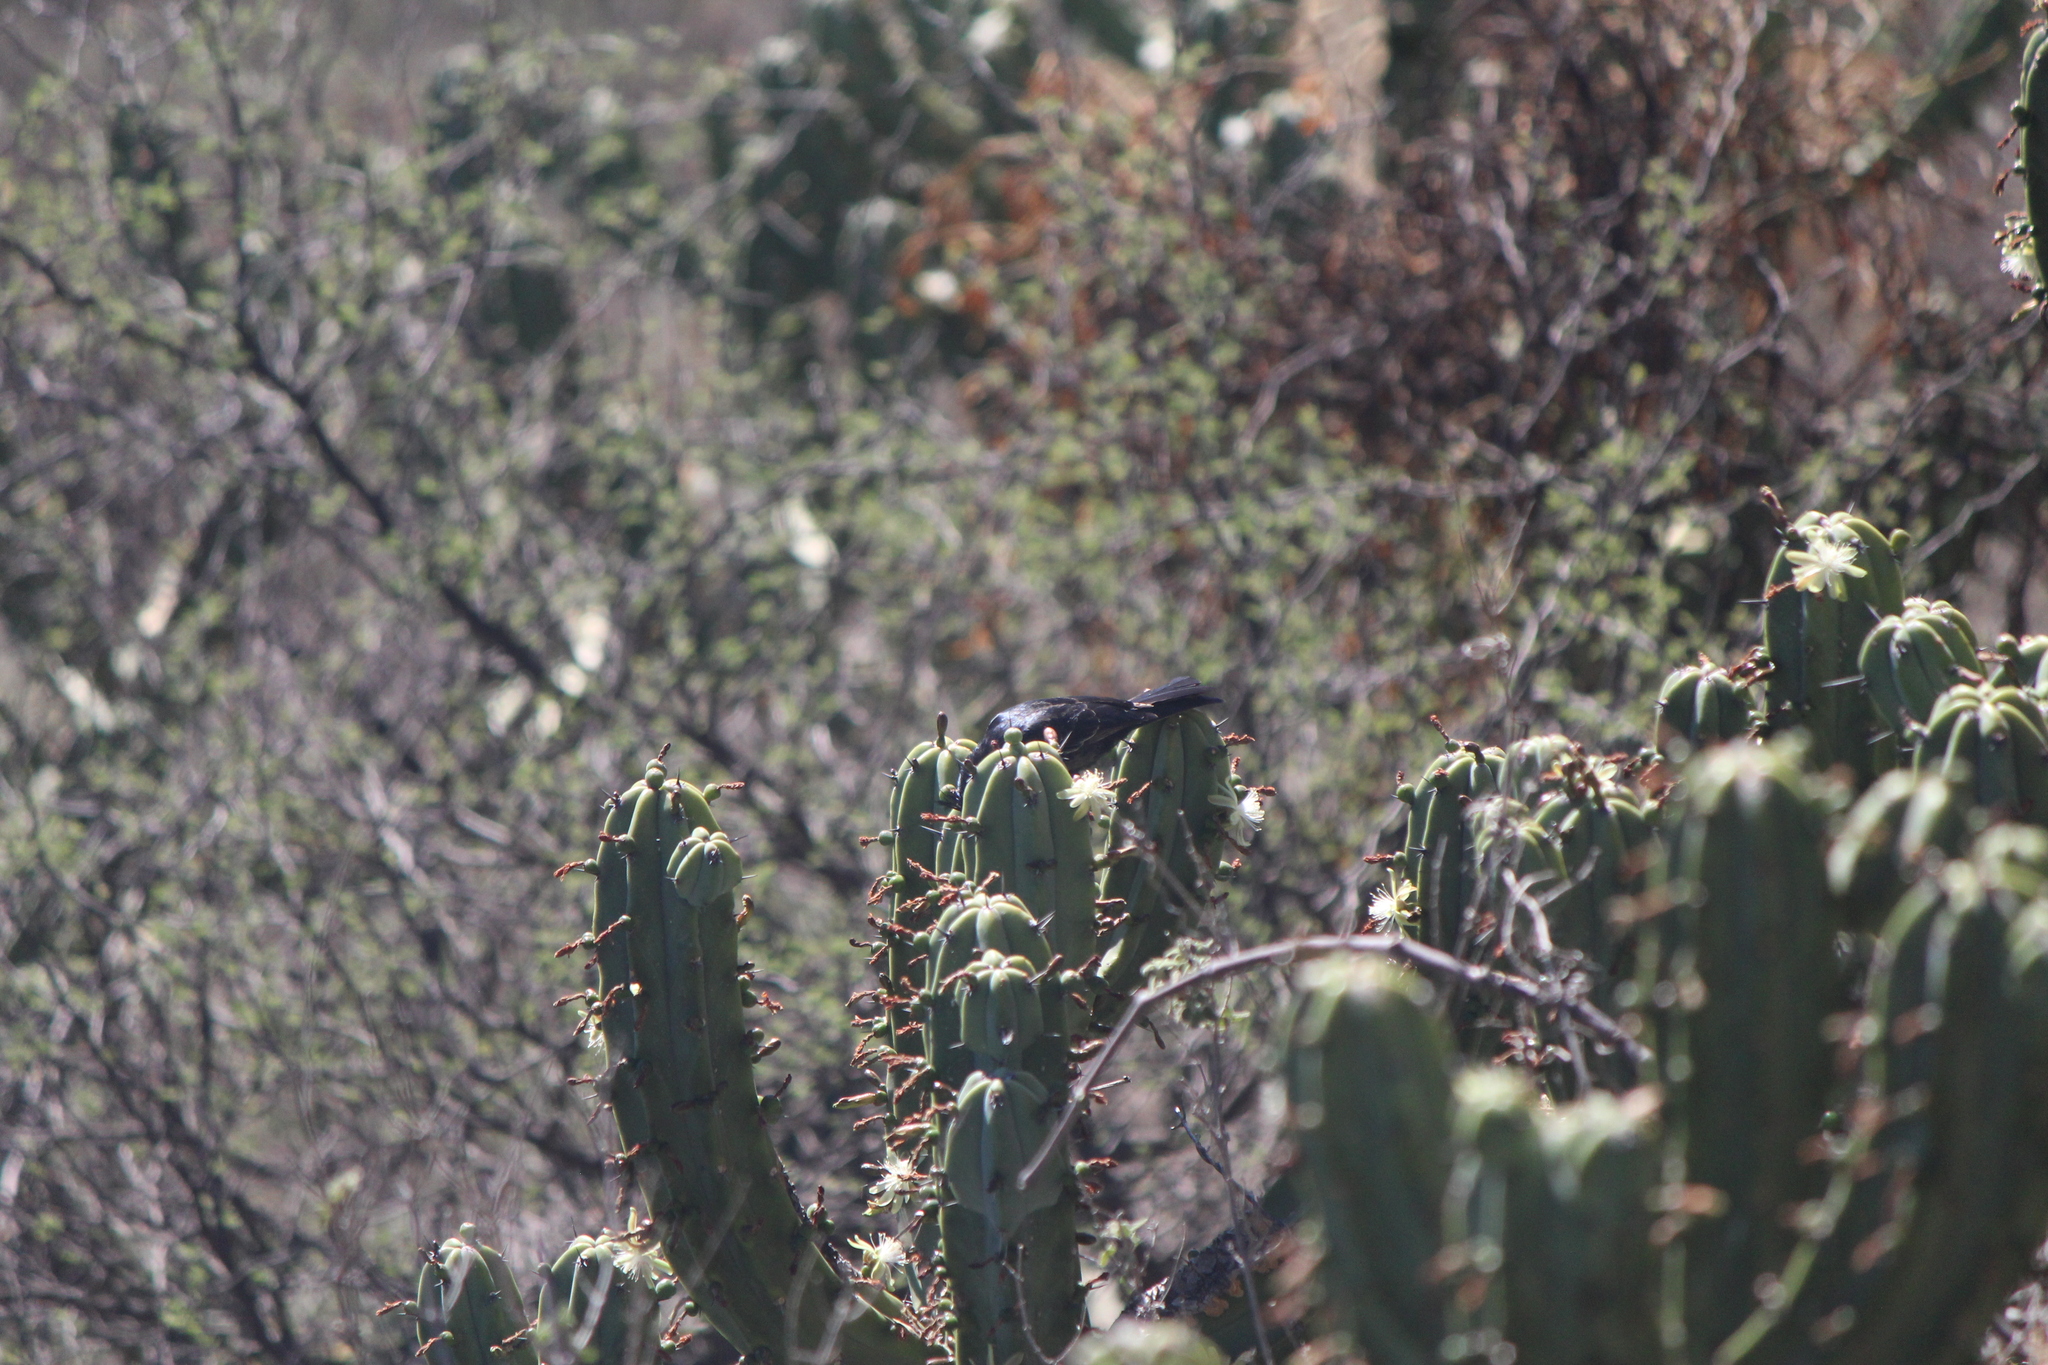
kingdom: Animalia
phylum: Chordata
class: Aves
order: Passeriformes
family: Ptilogonatidae
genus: Phainopepla
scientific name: Phainopepla nitens
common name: Phainopepla
